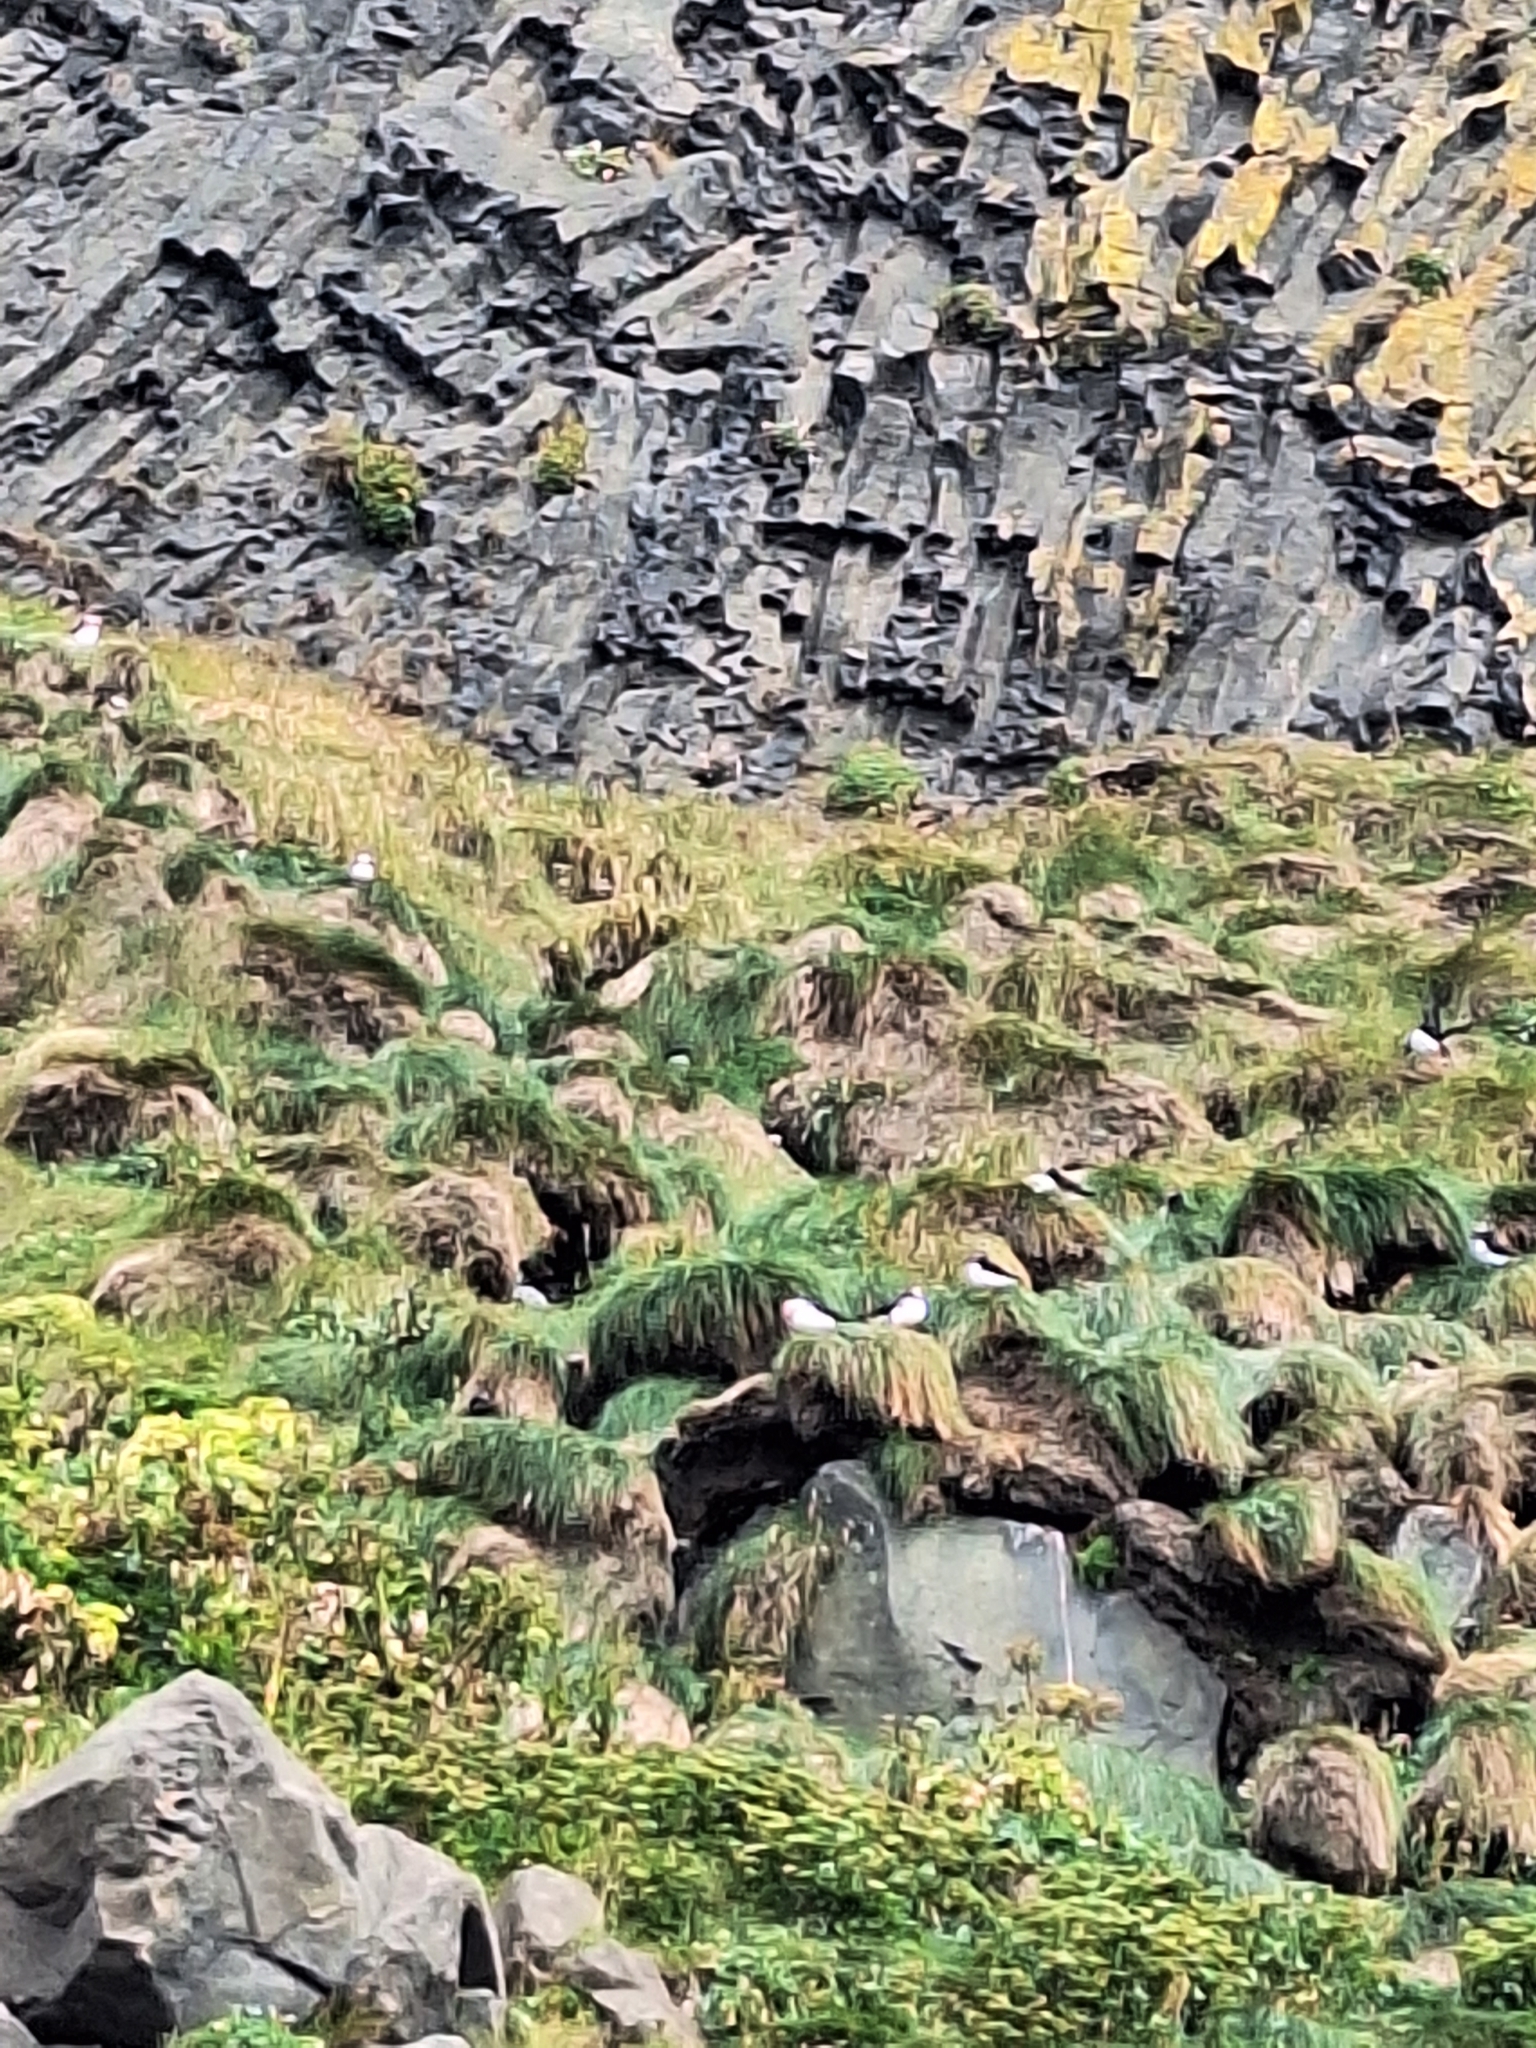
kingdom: Animalia
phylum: Chordata
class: Aves
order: Charadriiformes
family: Alcidae
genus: Fratercula
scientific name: Fratercula arctica
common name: Atlantic puffin
